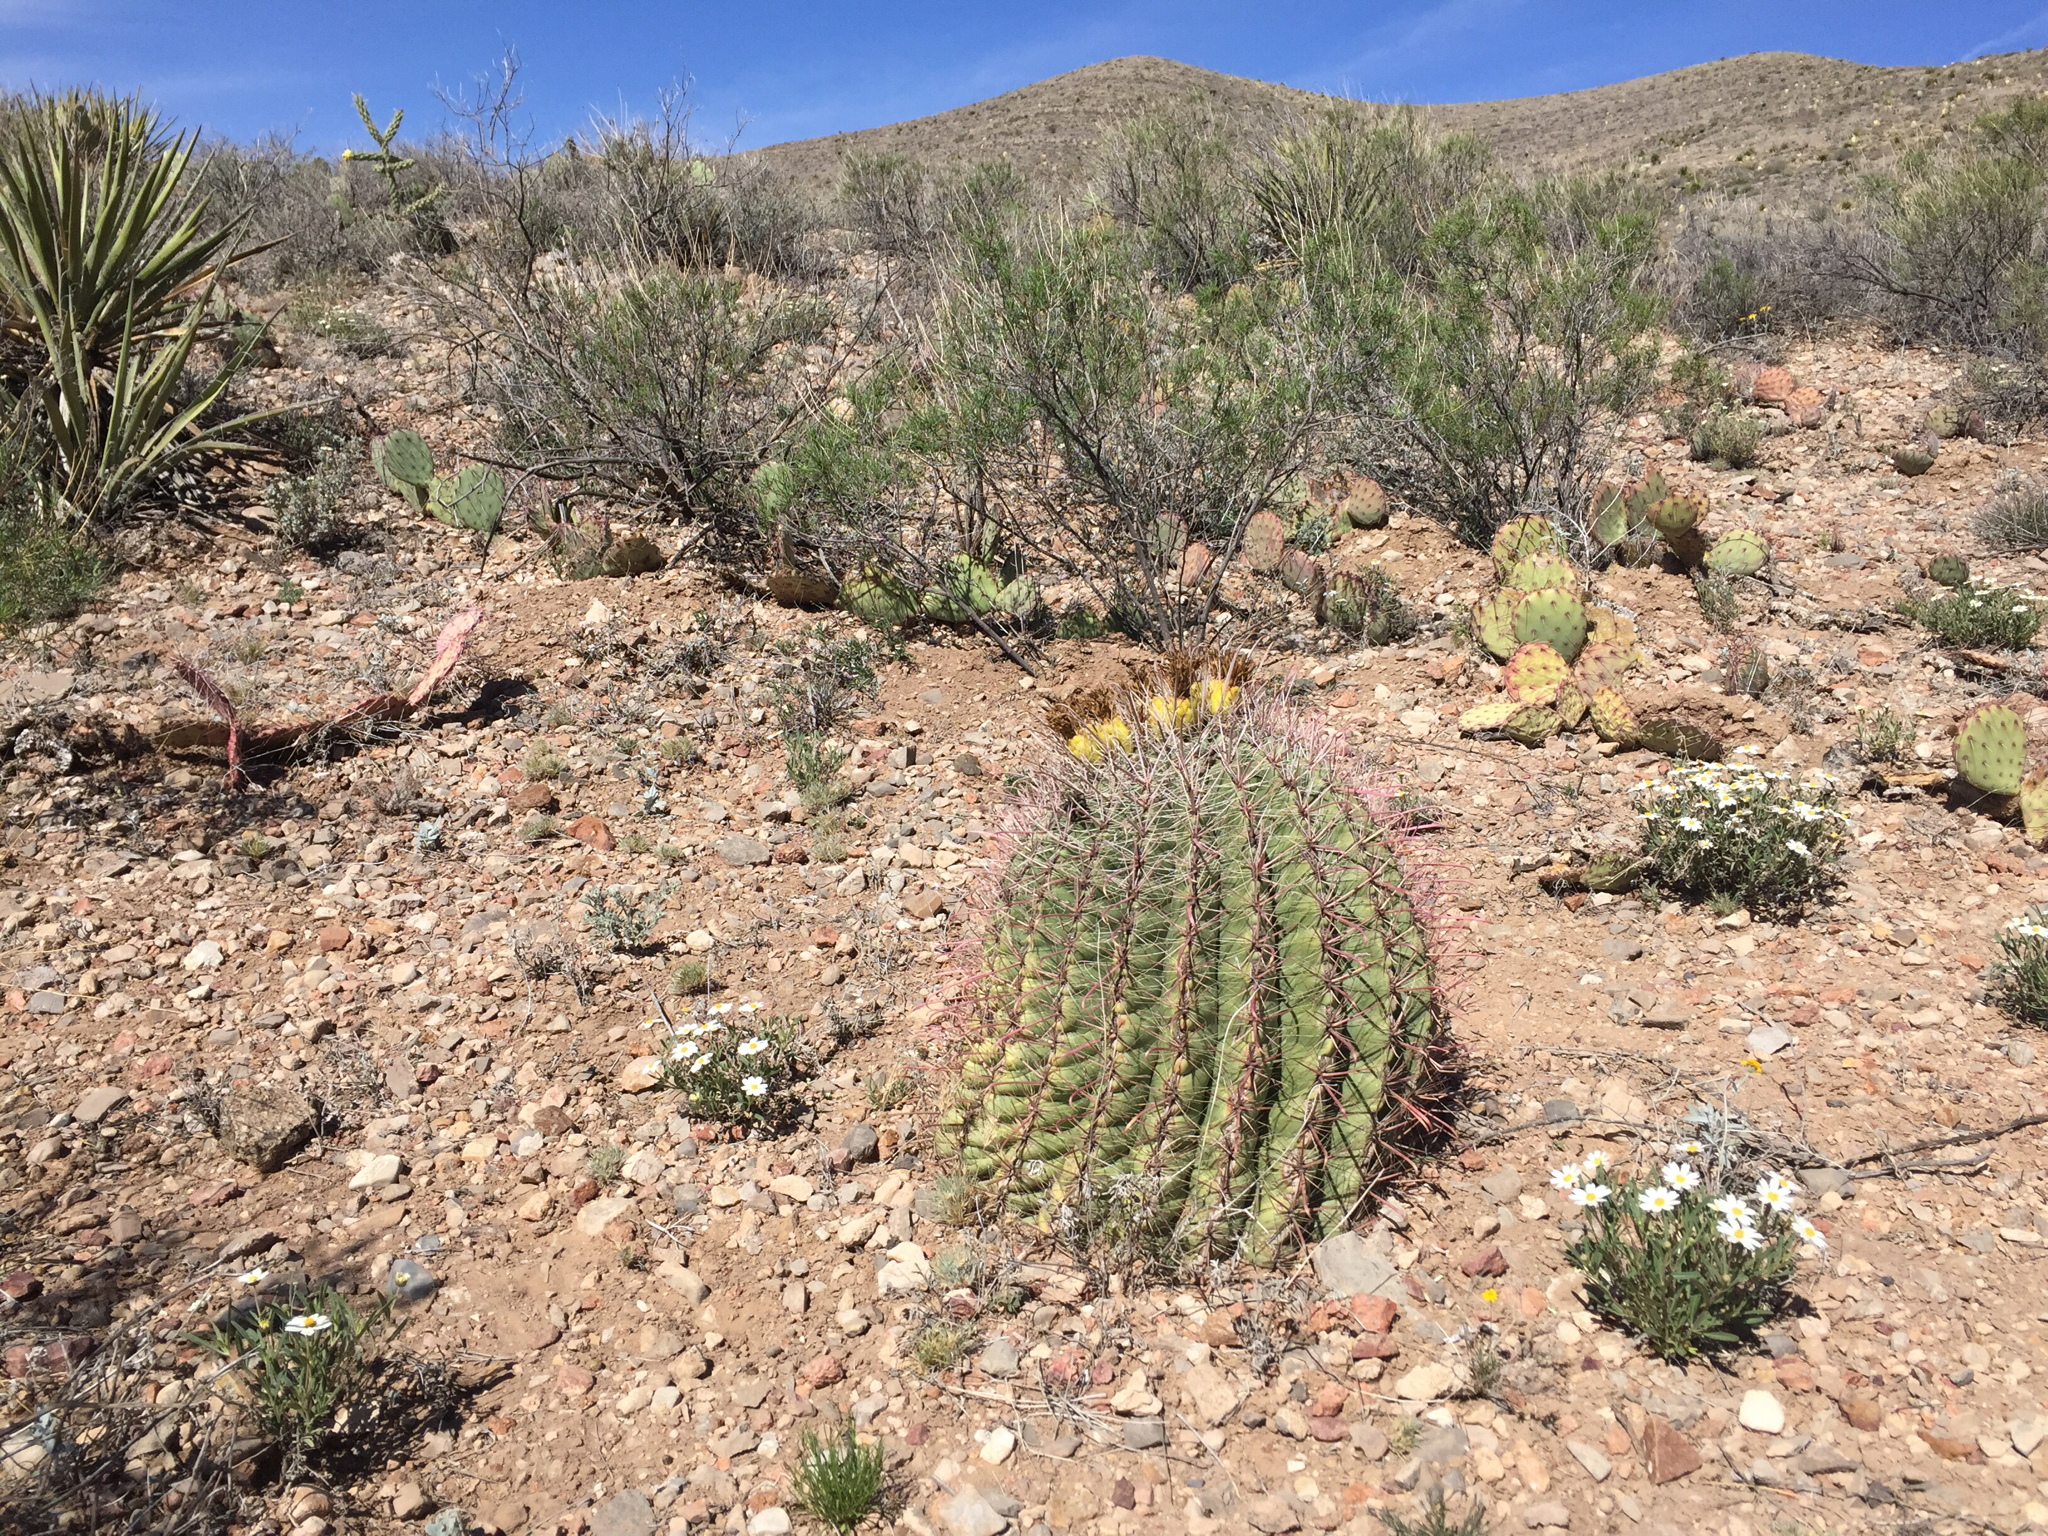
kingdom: Plantae
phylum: Tracheophyta
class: Magnoliopsida
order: Caryophyllales
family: Cactaceae
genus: Ferocactus
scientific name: Ferocactus wislizeni
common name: Candy barrel cactus
